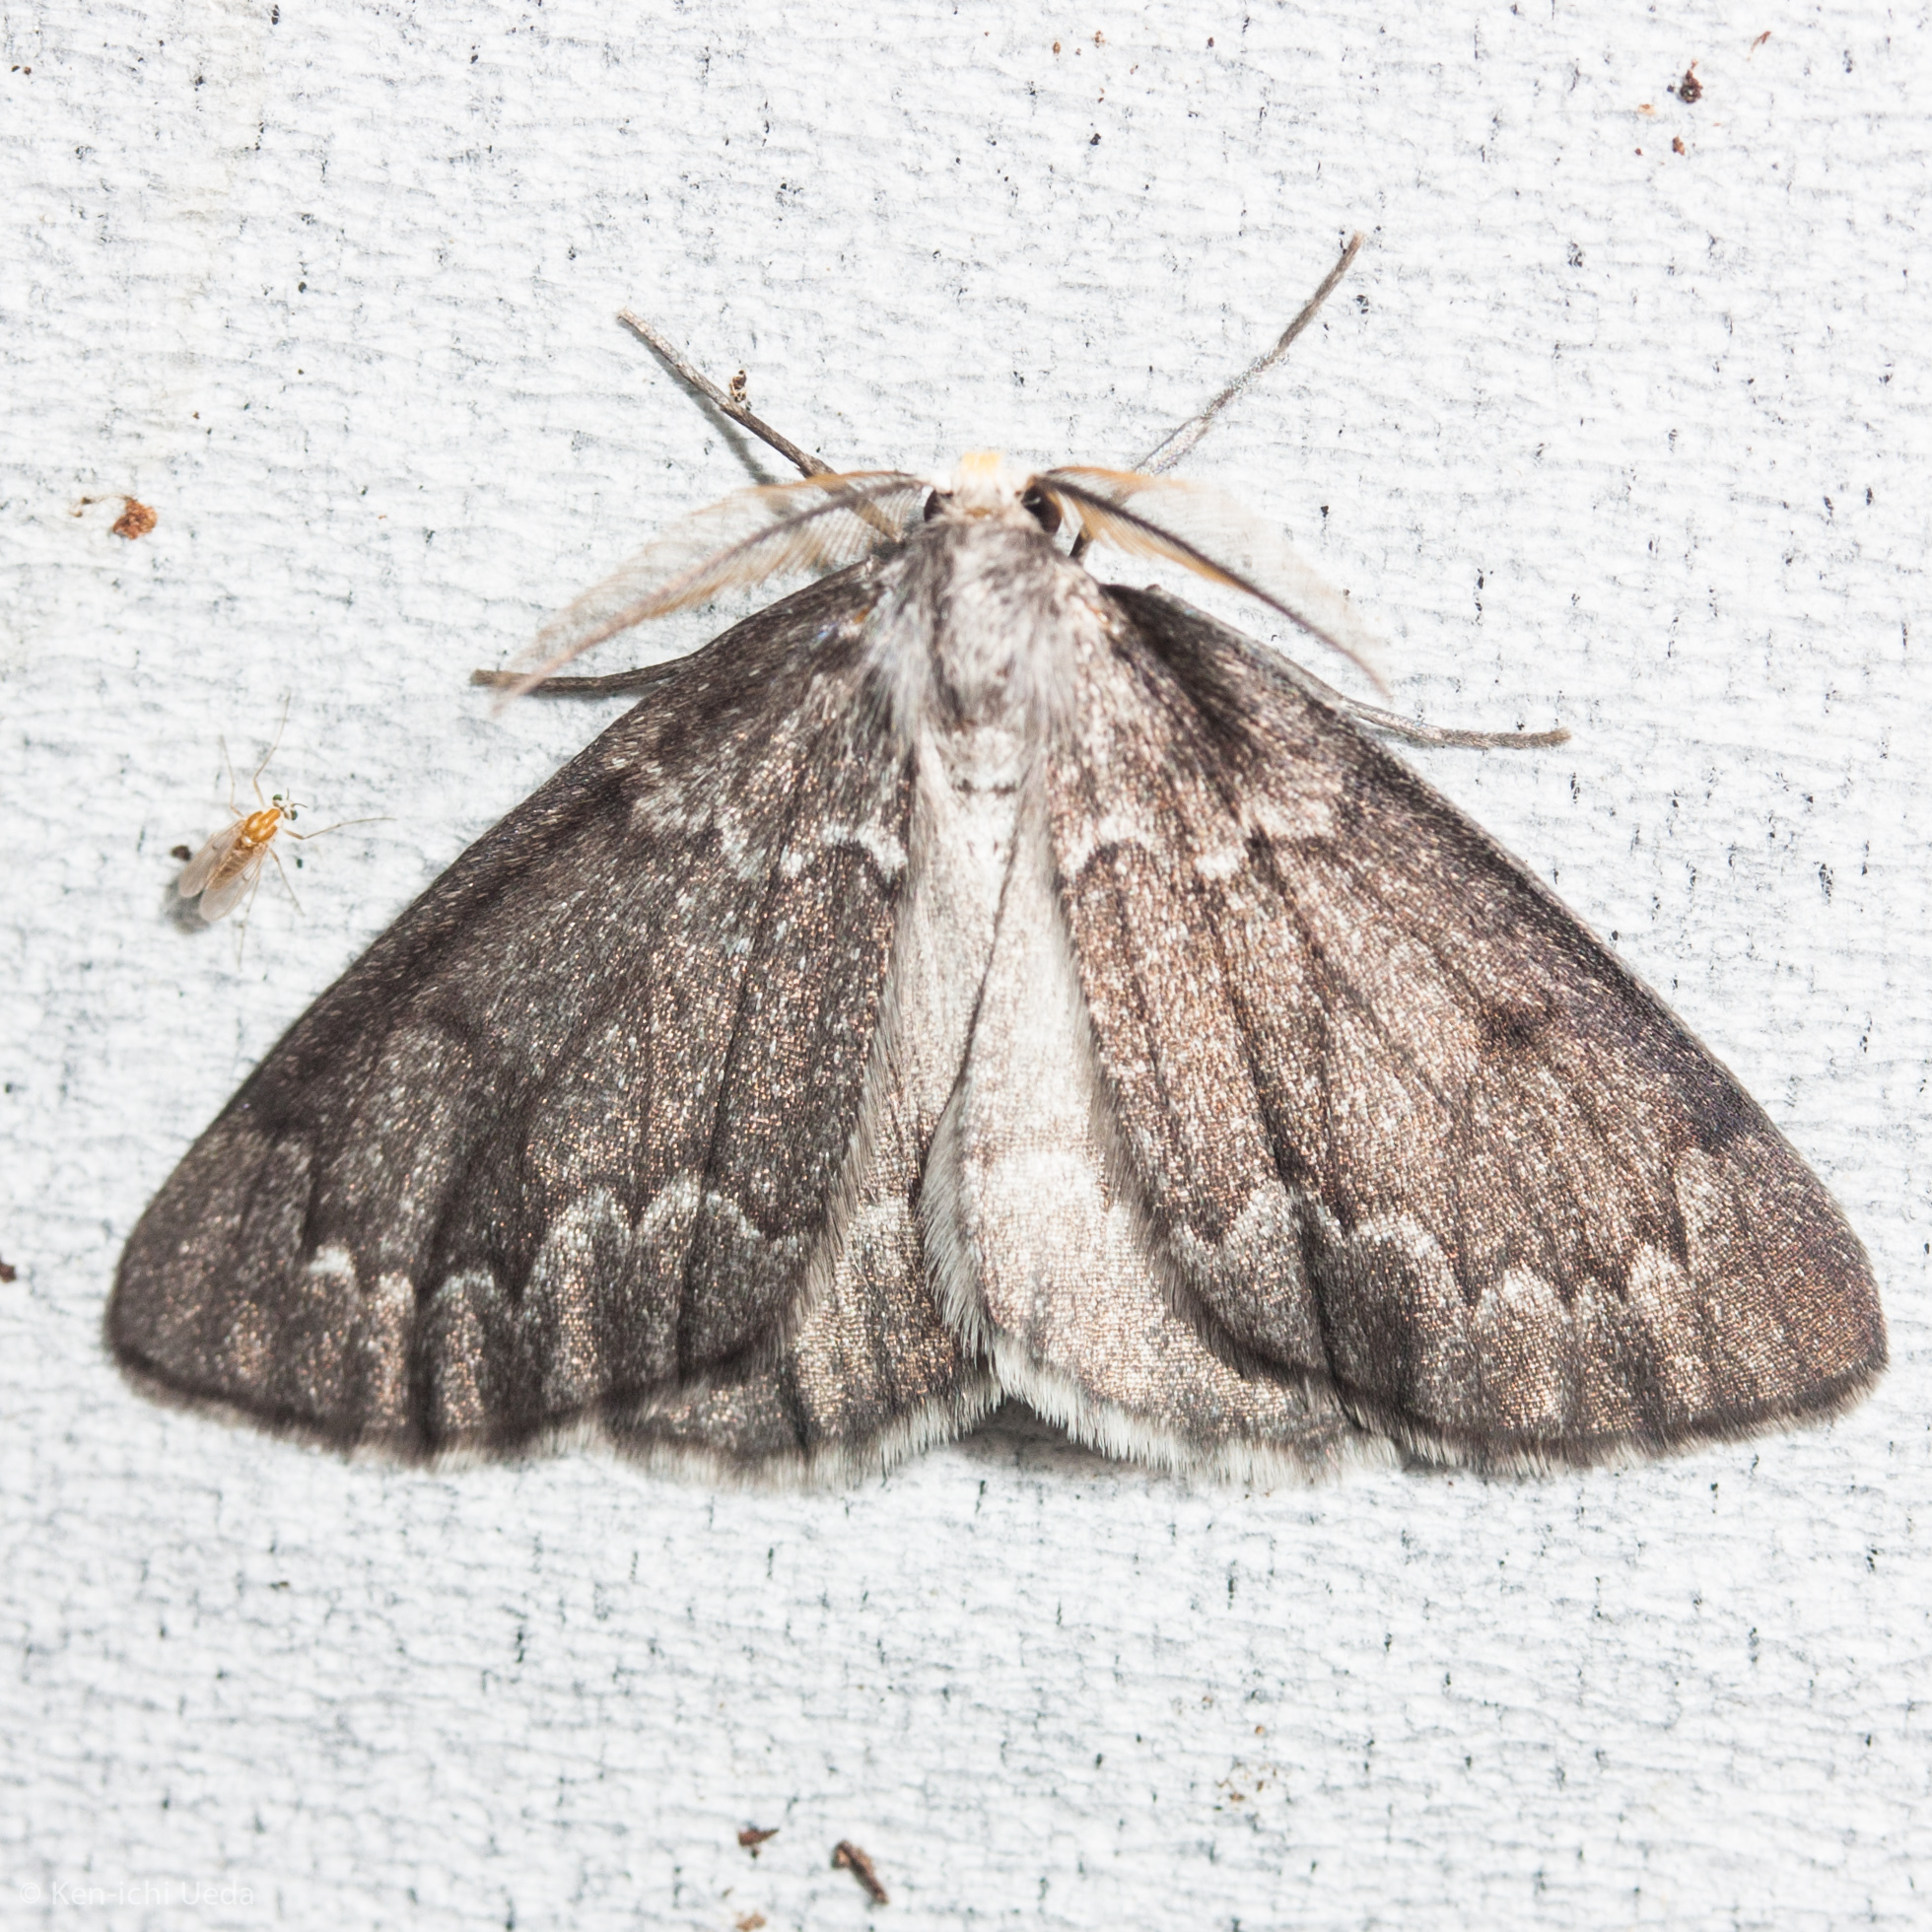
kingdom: Animalia
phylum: Arthropoda
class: Insecta
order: Lepidoptera
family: Geometridae
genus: Nepytia
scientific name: Nepytia canosaria
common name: False hemlock looper
